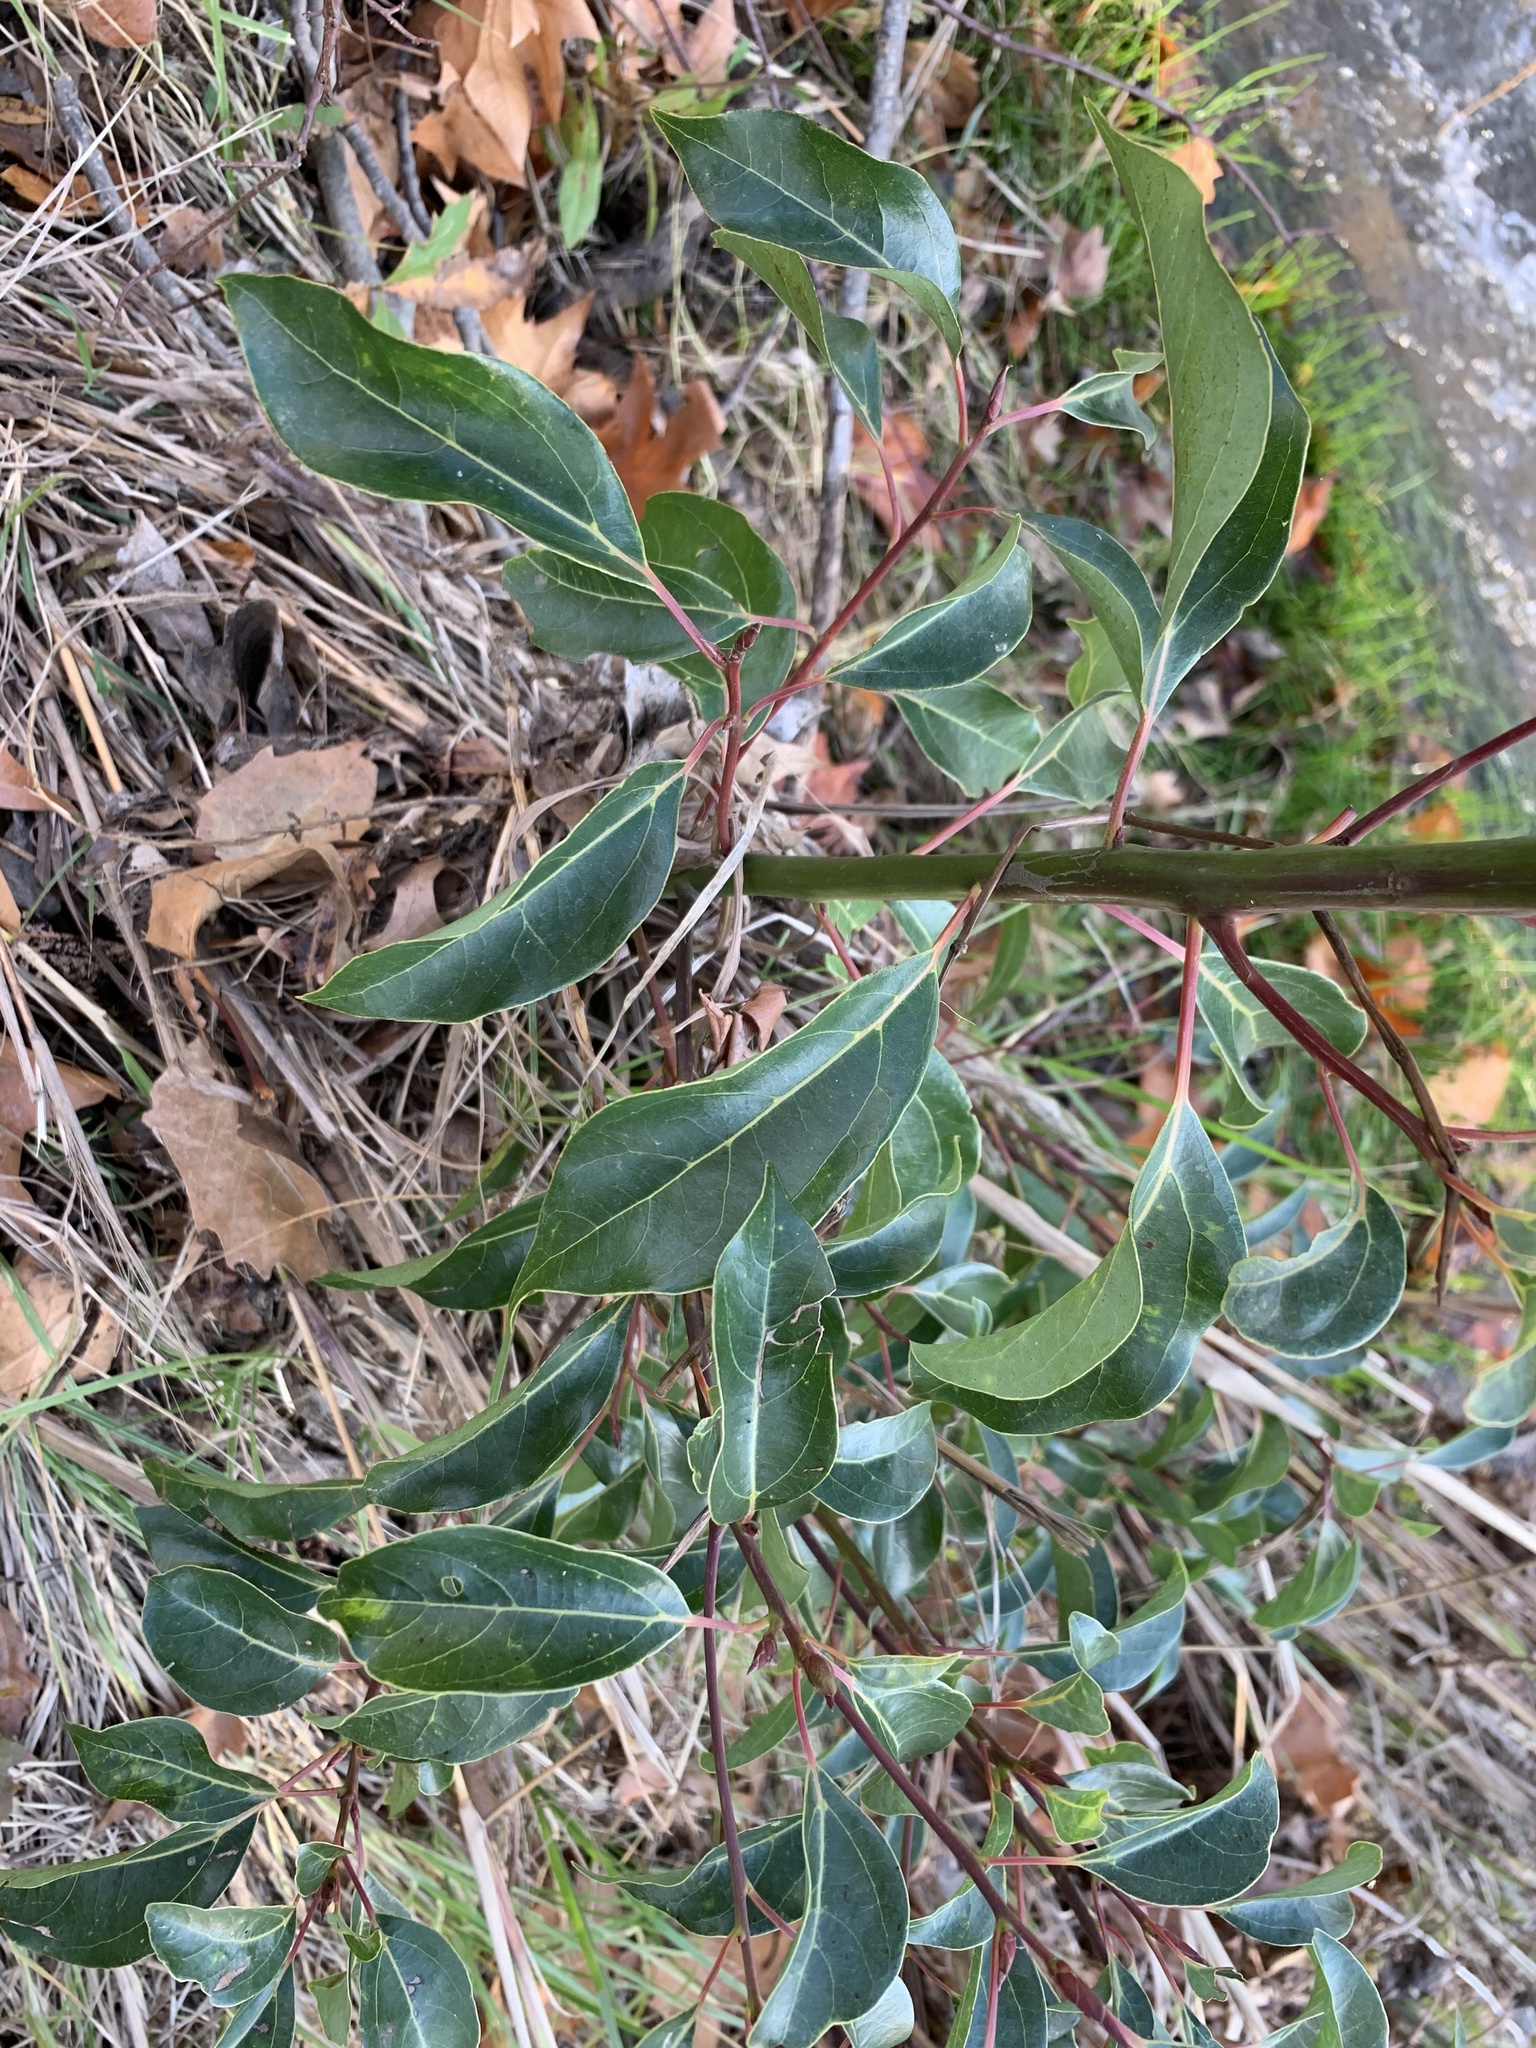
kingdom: Plantae
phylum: Tracheophyta
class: Magnoliopsida
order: Laurales
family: Lauraceae
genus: Cinnamomum
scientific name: Cinnamomum camphora
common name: Camphortree
